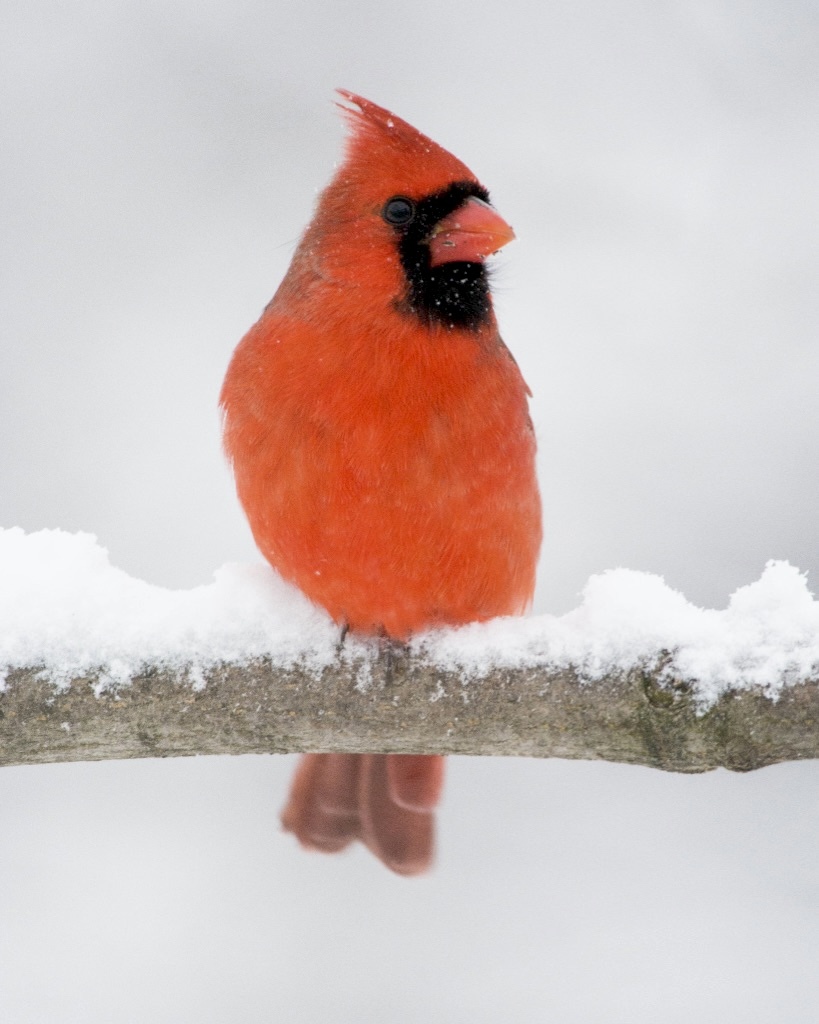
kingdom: Animalia
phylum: Chordata
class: Aves
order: Passeriformes
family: Cardinalidae
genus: Cardinalis
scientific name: Cardinalis cardinalis
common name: Northern cardinal
